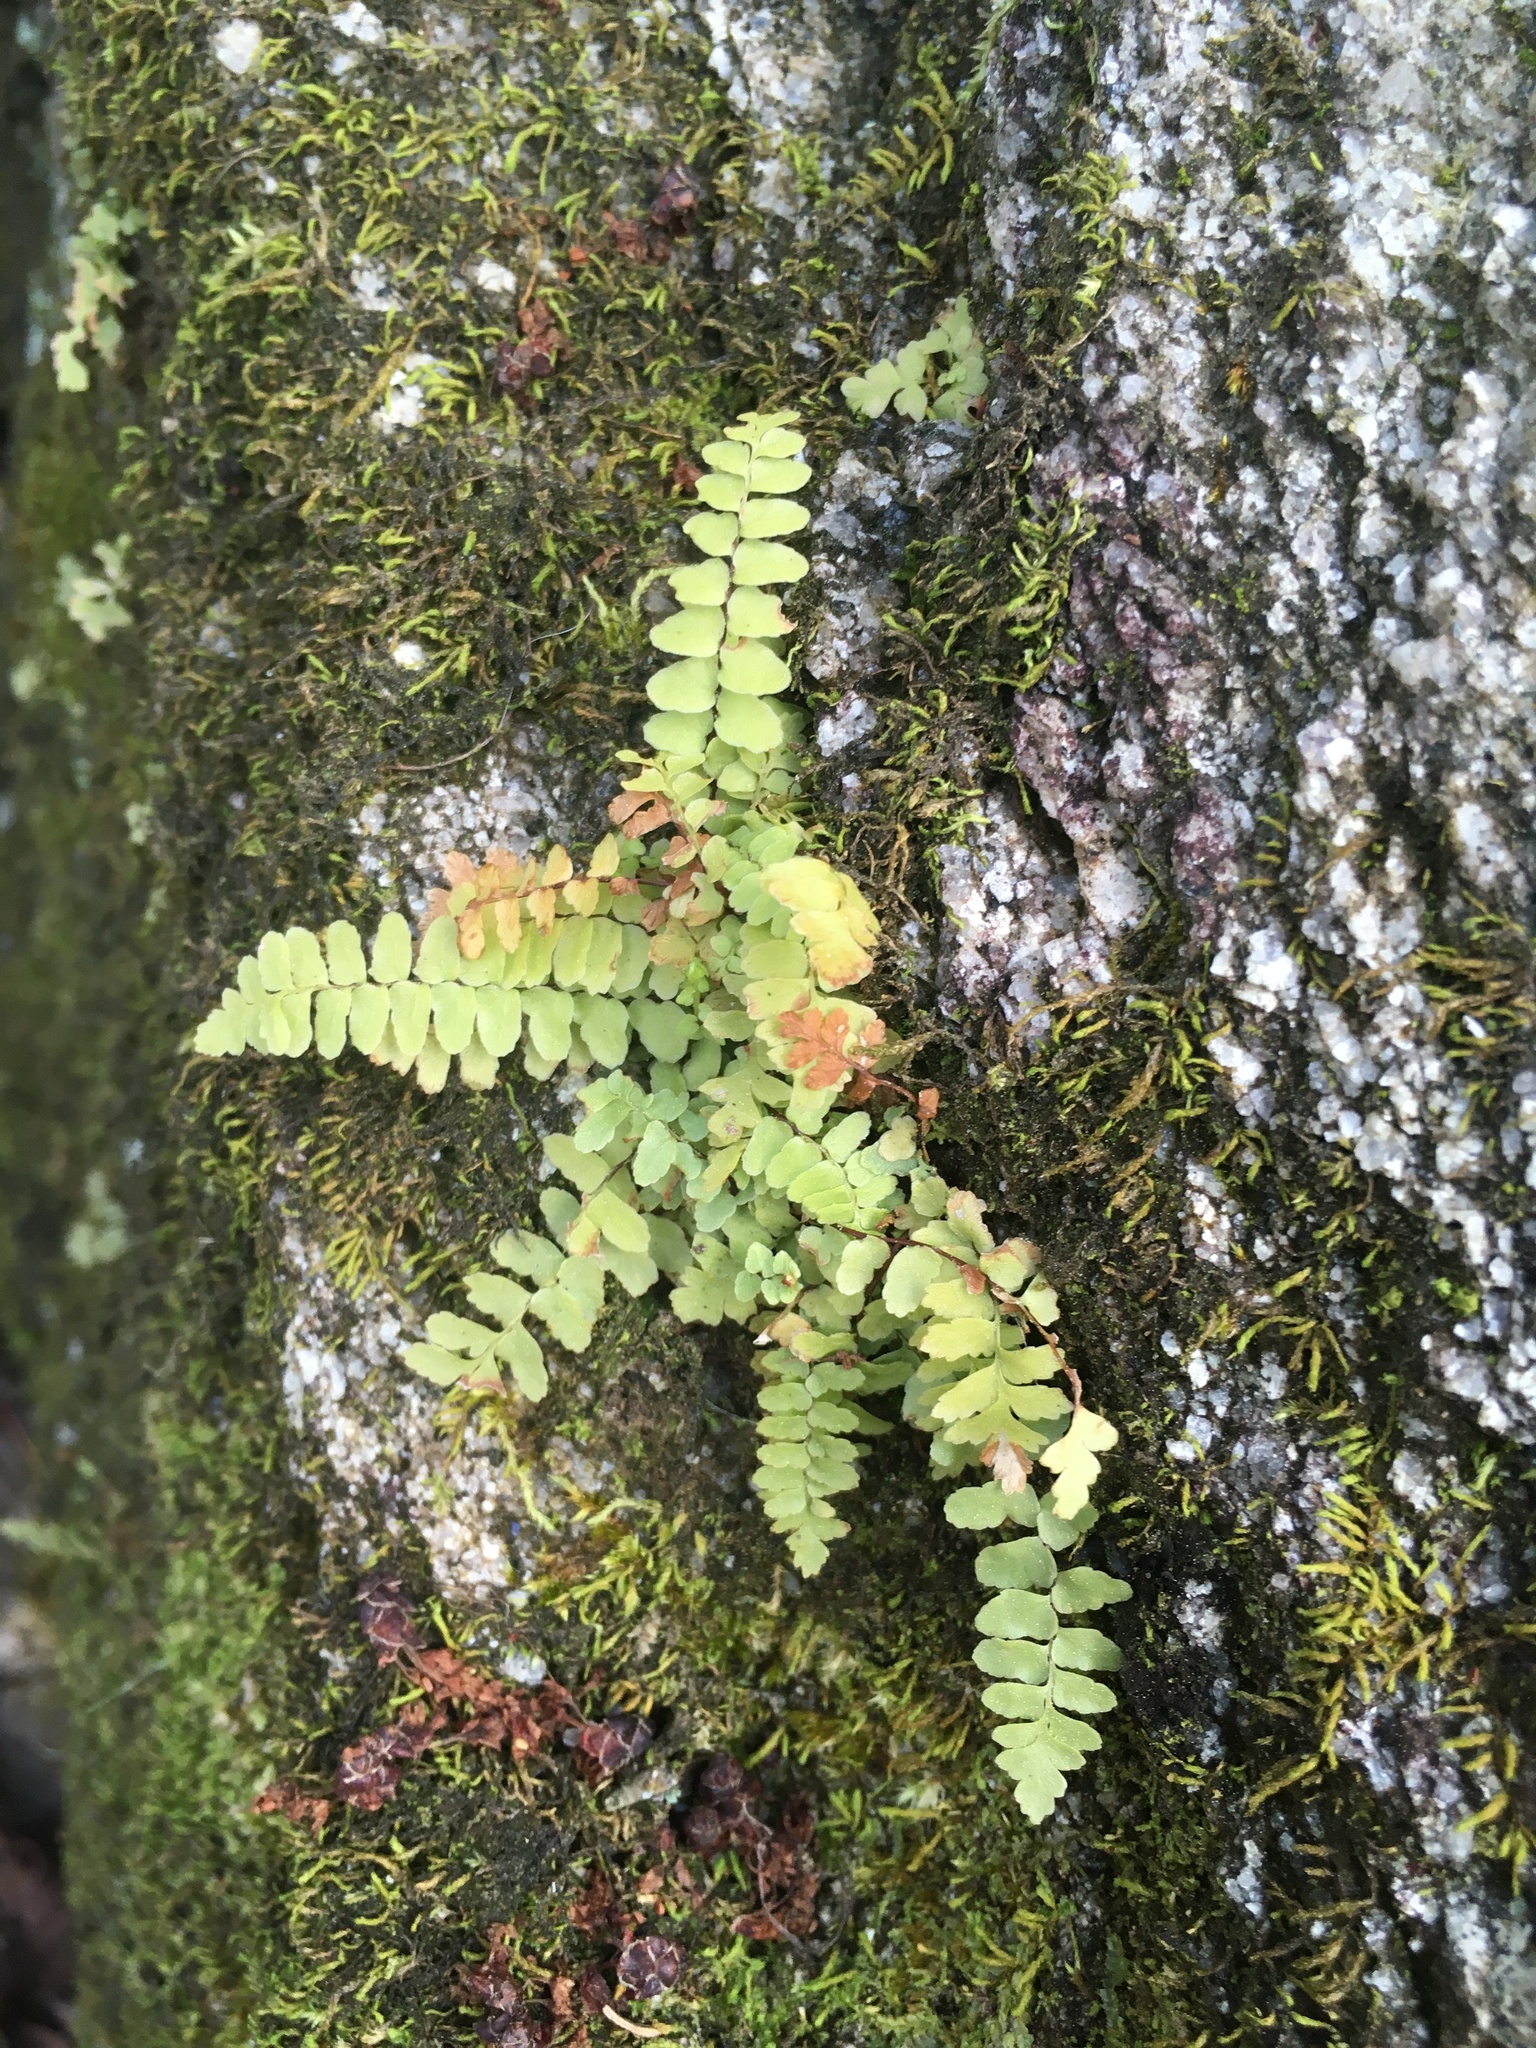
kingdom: Plantae
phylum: Tracheophyta
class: Polypodiopsida
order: Polypodiales
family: Aspleniaceae
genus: Asplenium
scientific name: Asplenium platyneuron
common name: Ebony spleenwort
